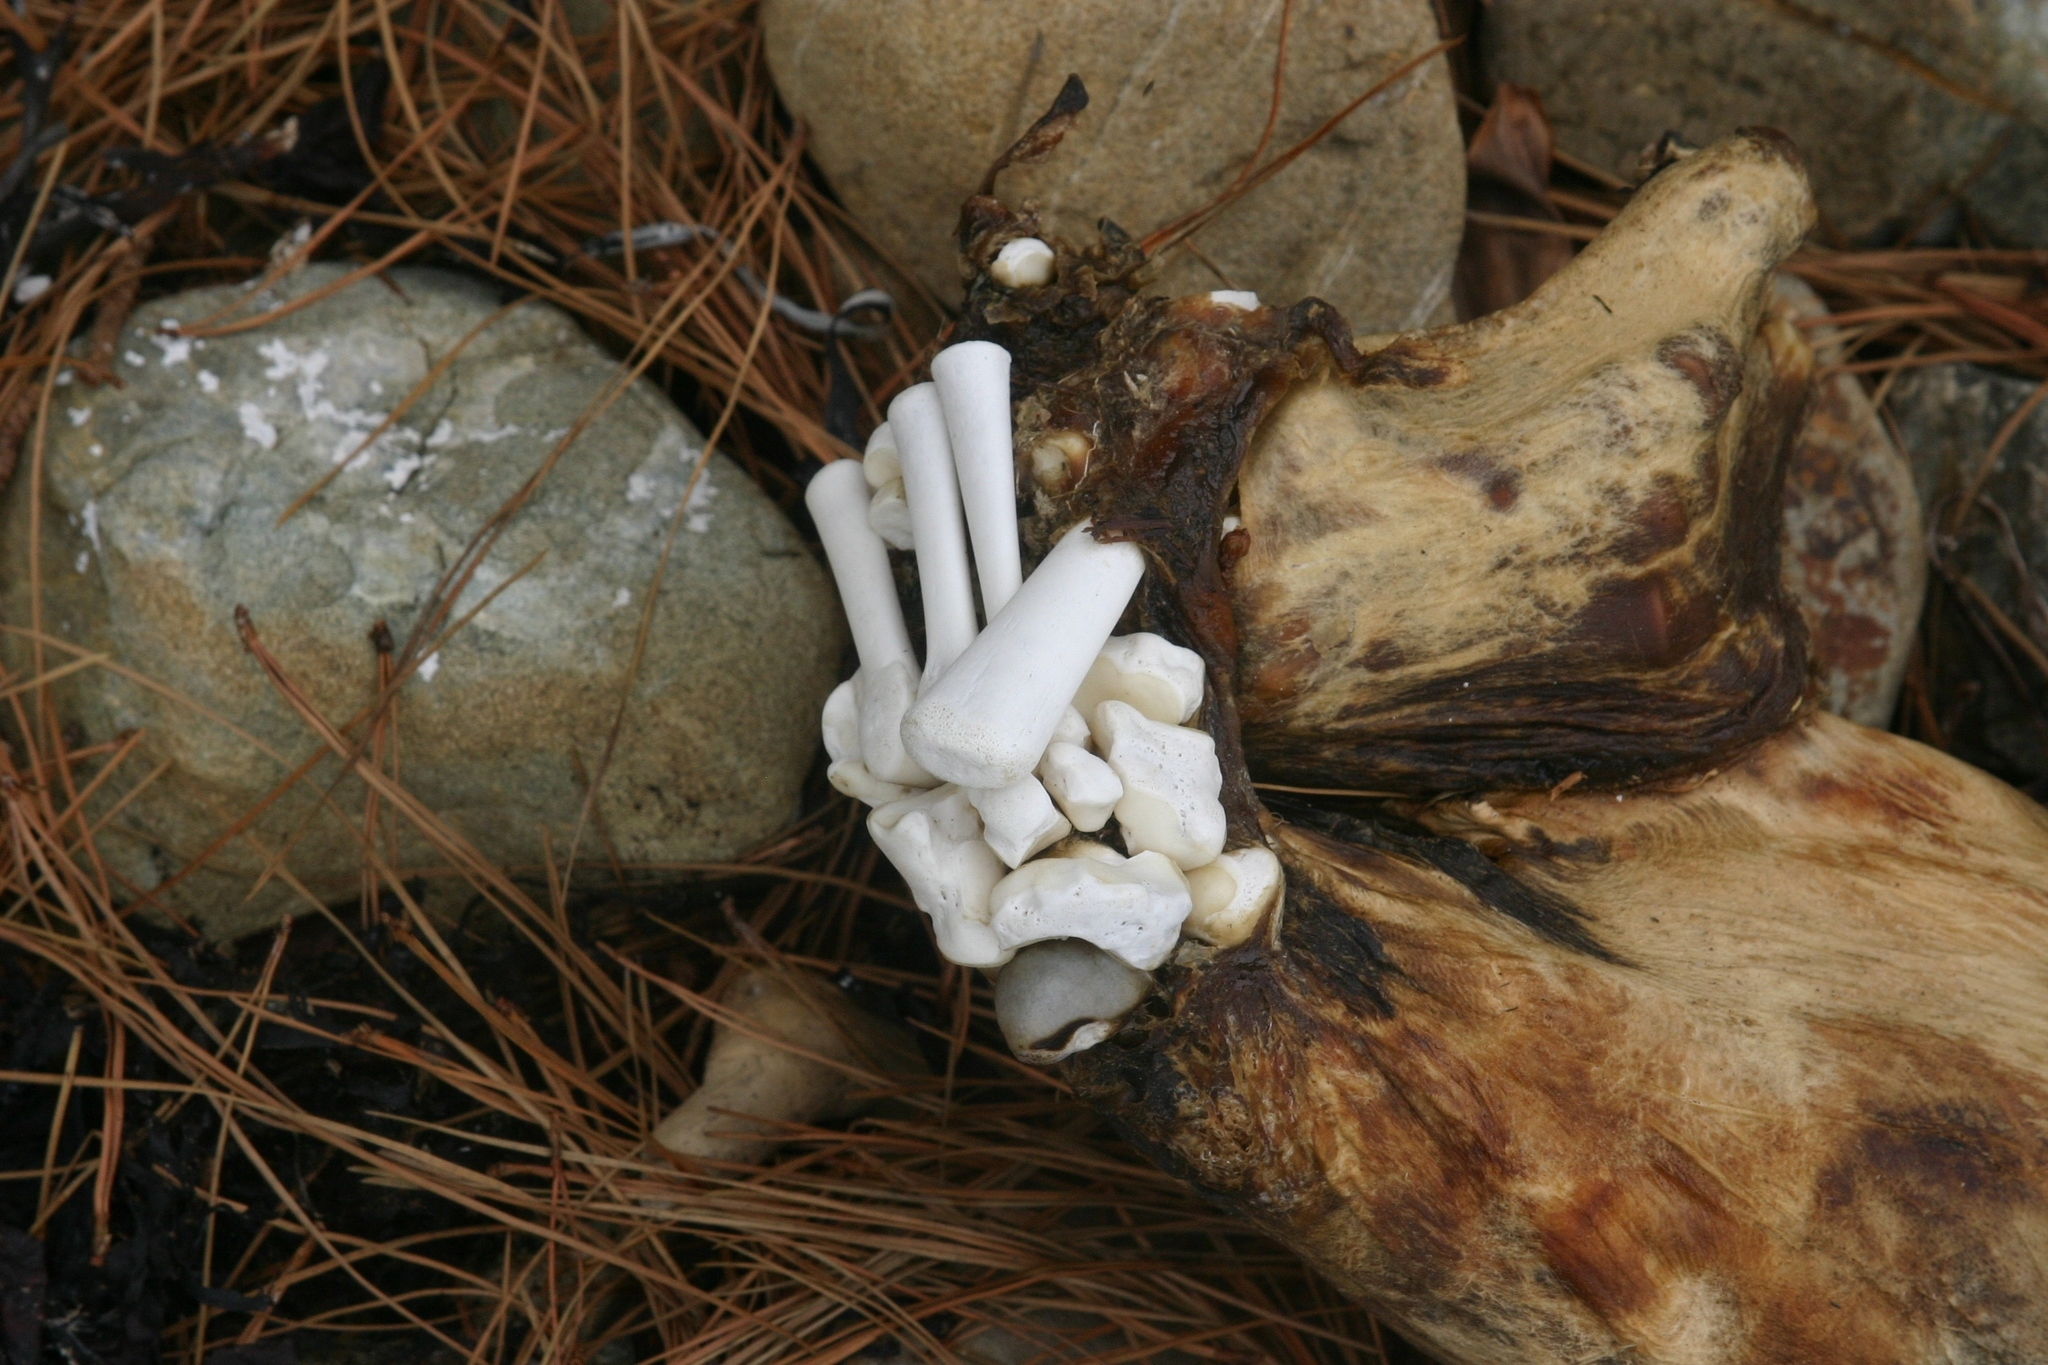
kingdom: Animalia
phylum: Chordata
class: Mammalia
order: Carnivora
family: Otariidae
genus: Arctocephalus
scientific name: Arctocephalus forsteri
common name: New zealand fur seal
